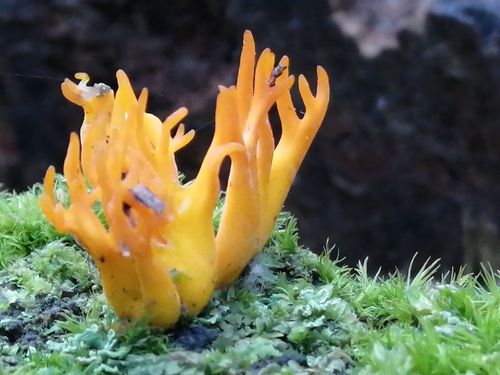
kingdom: Fungi
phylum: Basidiomycota
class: Dacrymycetes
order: Dacrymycetales
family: Dacrymycetaceae
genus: Calocera
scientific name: Calocera viscosa
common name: Yellow stagshorn
